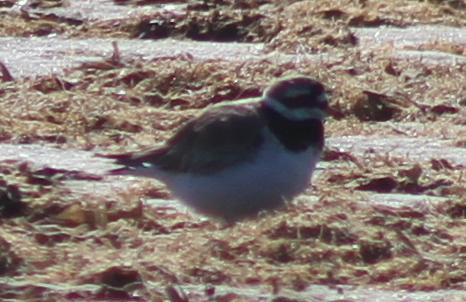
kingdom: Animalia
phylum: Chordata
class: Aves
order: Charadriiformes
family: Charadriidae
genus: Charadrius
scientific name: Charadrius hiaticula
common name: Common ringed plover
